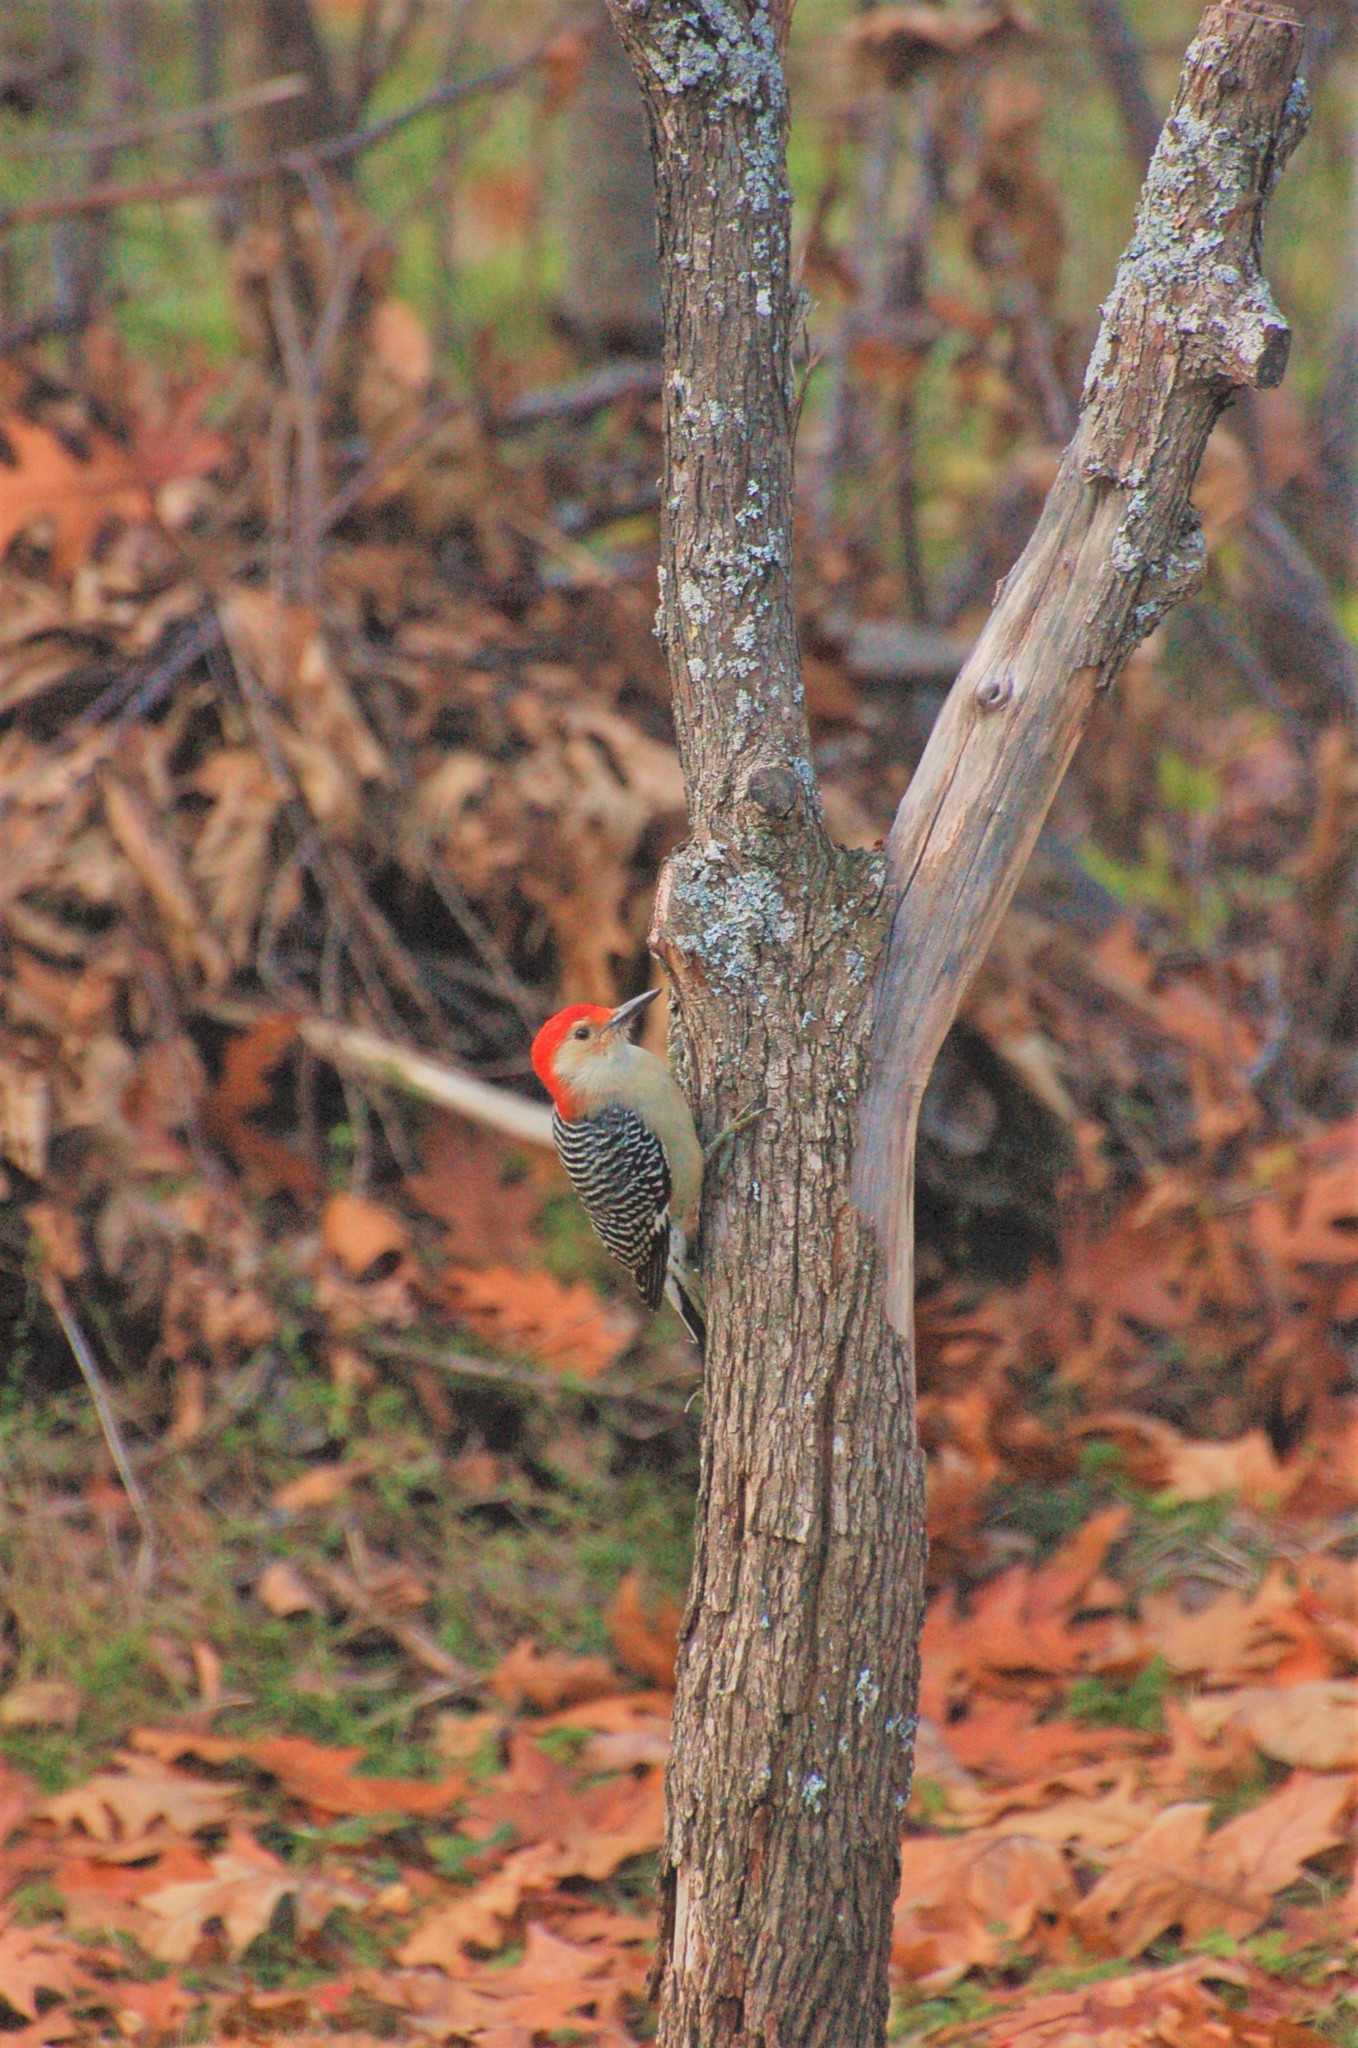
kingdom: Animalia
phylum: Chordata
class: Aves
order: Piciformes
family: Picidae
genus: Melanerpes
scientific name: Melanerpes carolinus
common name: Red-bellied woodpecker
